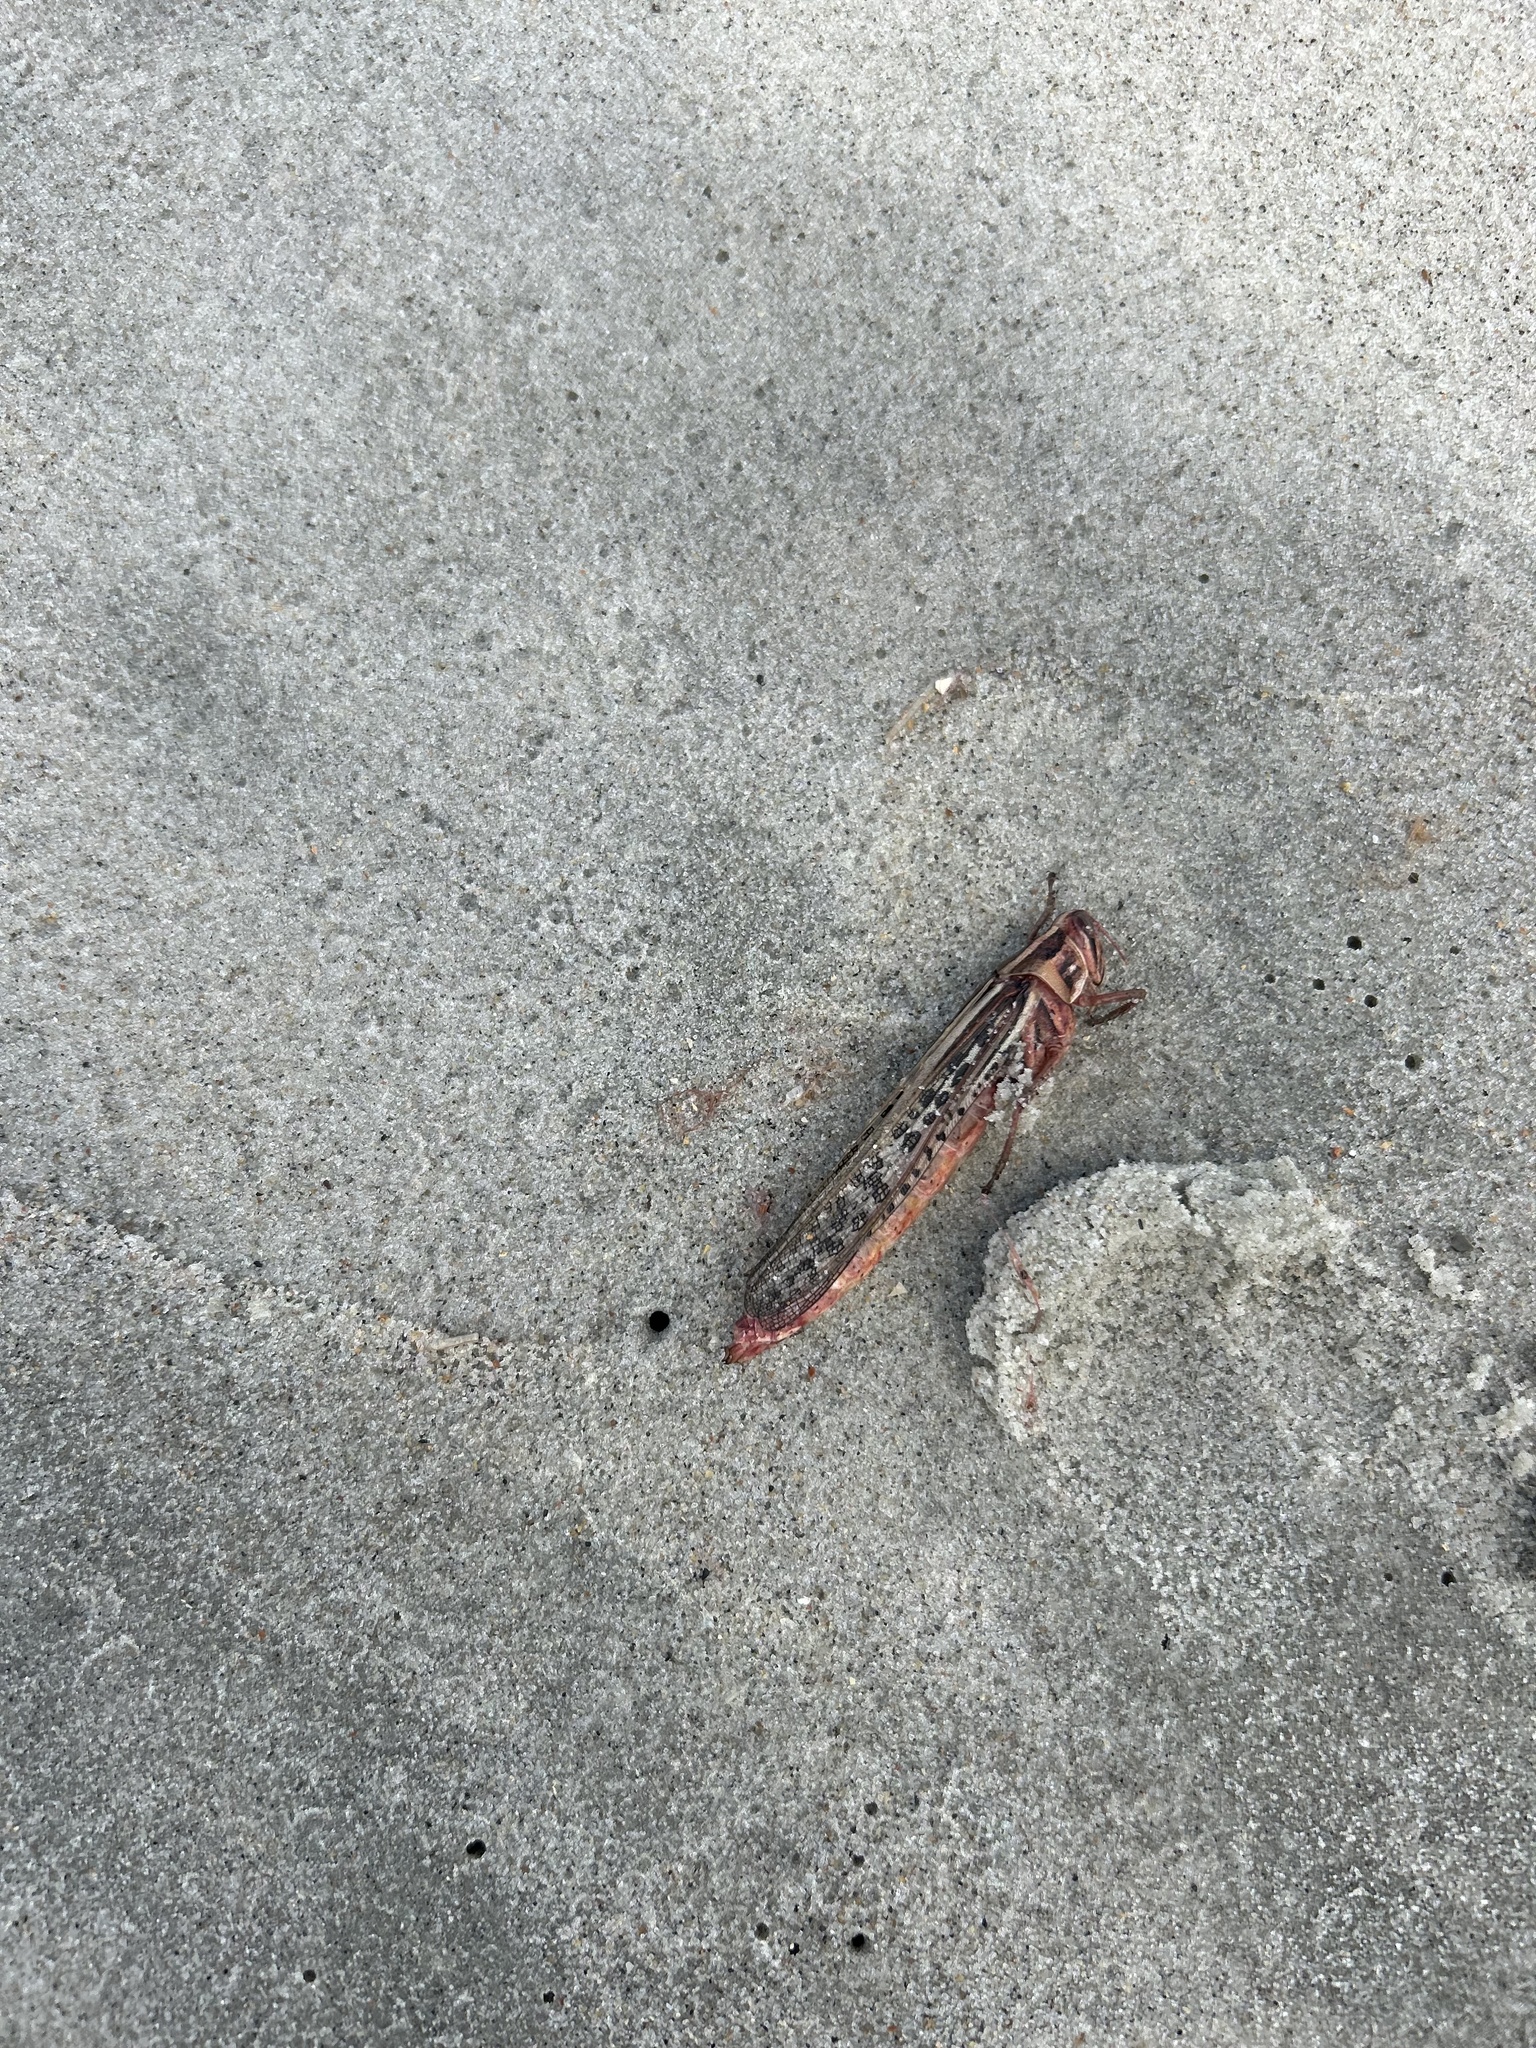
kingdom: Animalia
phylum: Arthropoda
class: Insecta
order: Orthoptera
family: Acrididae
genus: Schistocerca
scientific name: Schistocerca americana
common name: American bird locust
